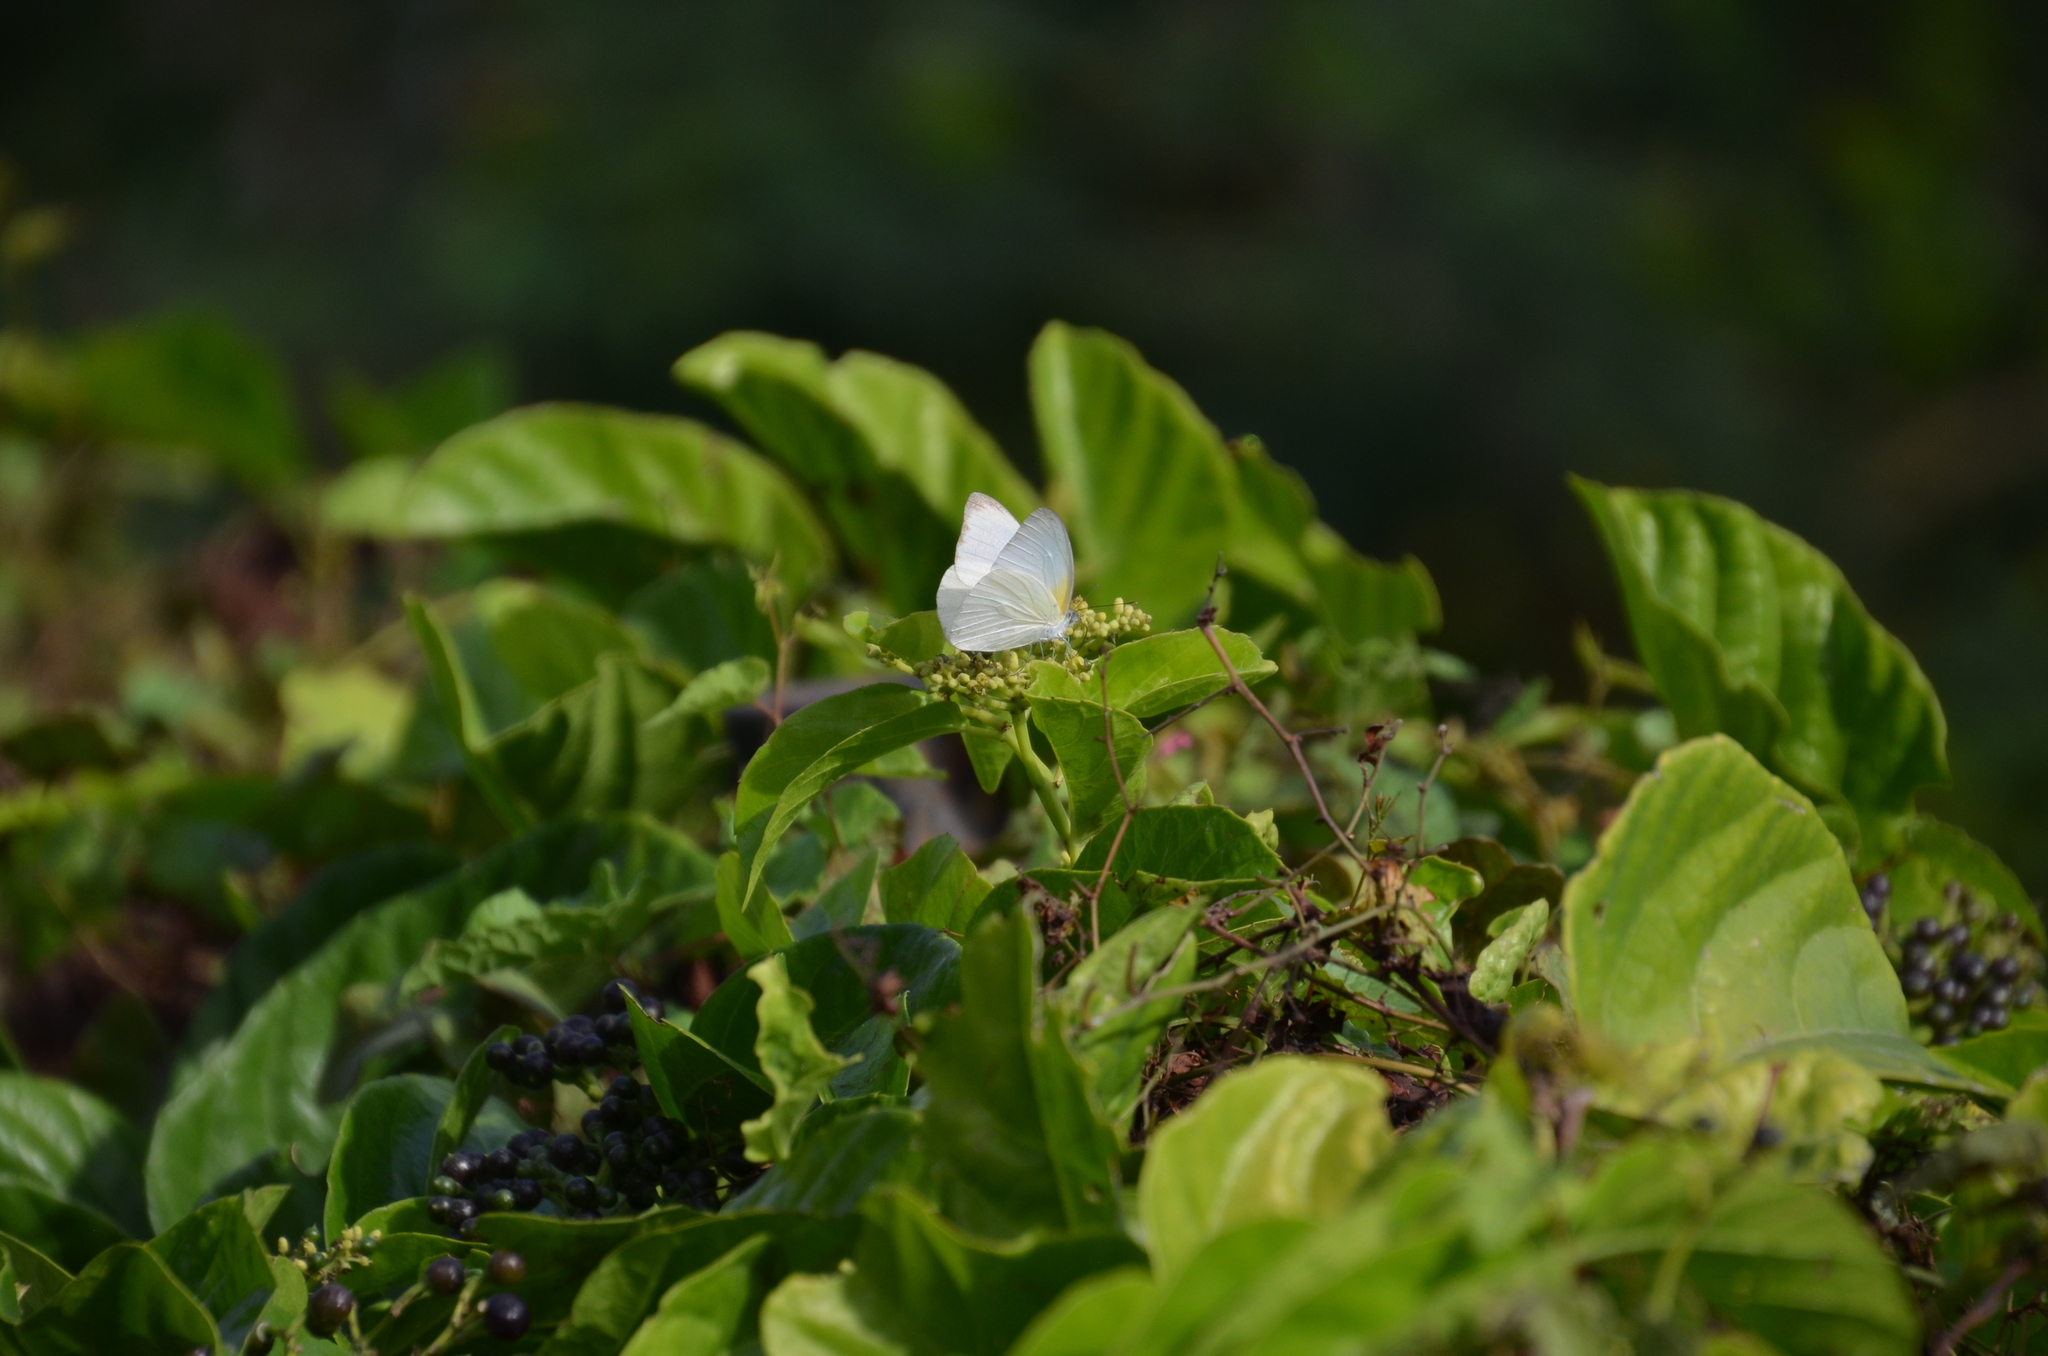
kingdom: Animalia
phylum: Arthropoda
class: Insecta
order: Lepidoptera
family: Pieridae
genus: Glutophrissa
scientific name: Glutophrissa drusilla
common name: Florida white
